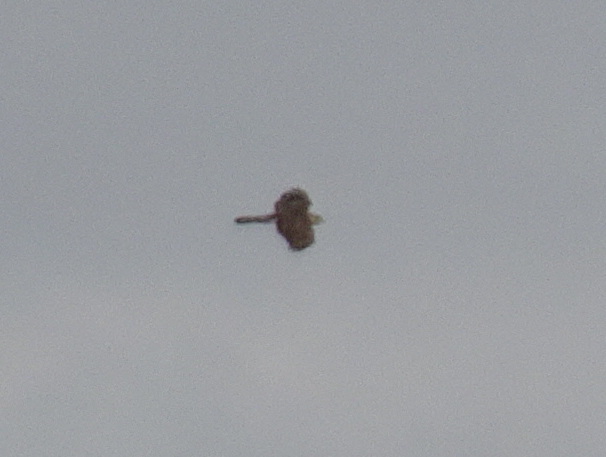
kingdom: Animalia
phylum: Chordata
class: Aves
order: Accipitriformes
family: Accipitridae
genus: Accipiter
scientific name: Accipiter cooperii
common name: Cooper's hawk
